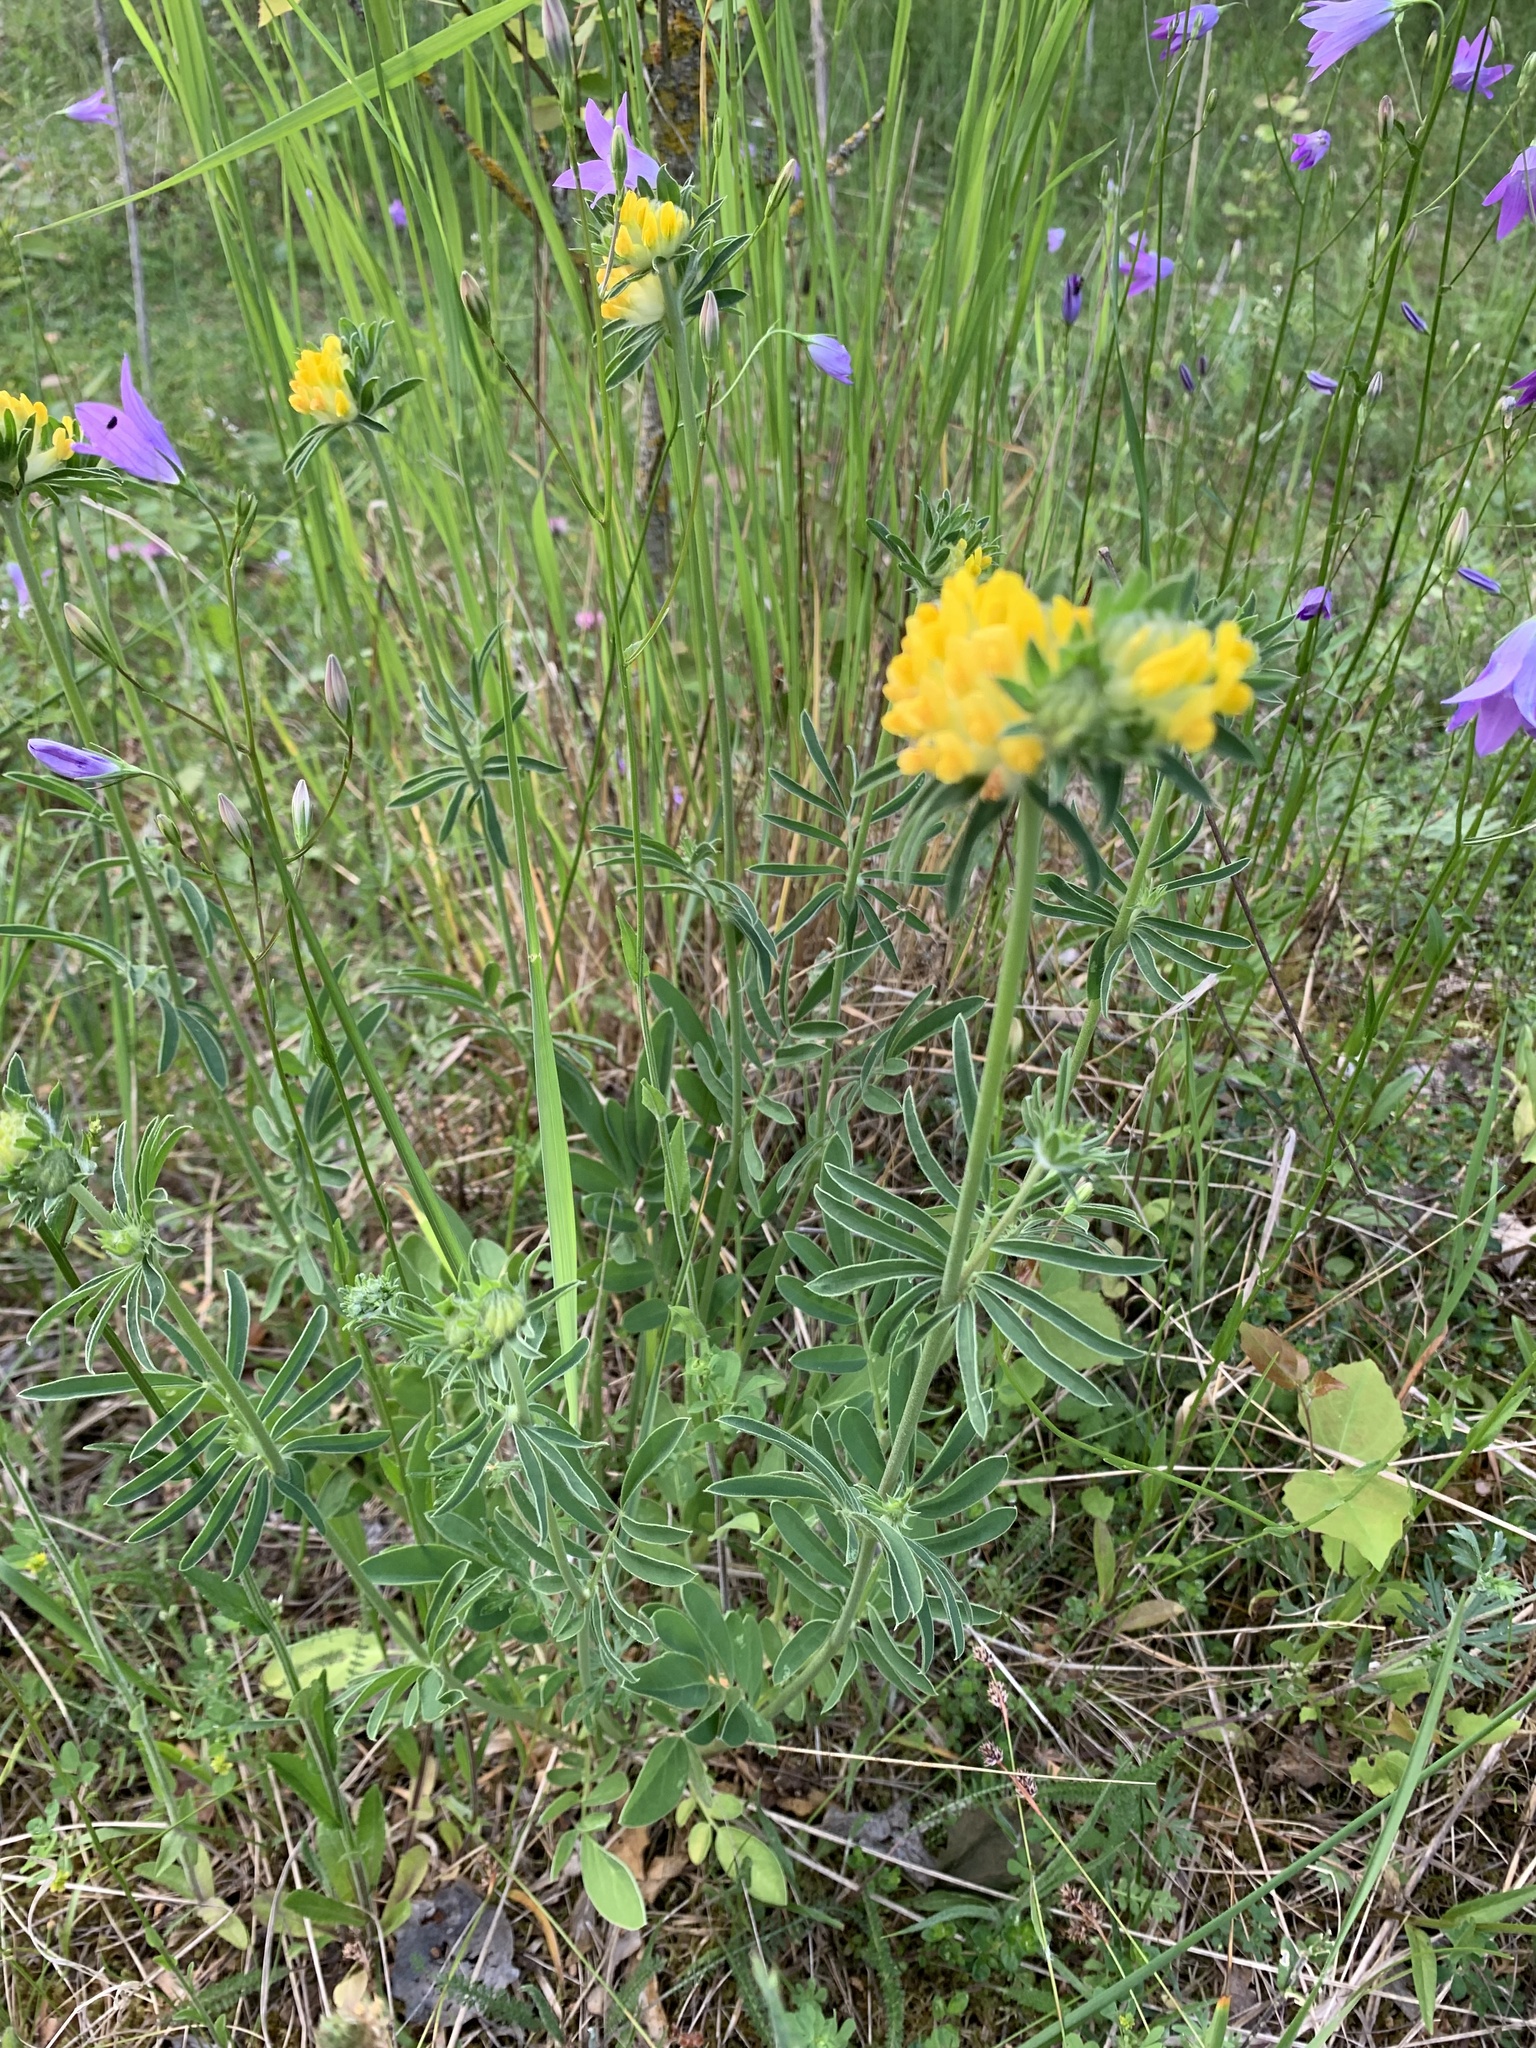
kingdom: Plantae
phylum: Tracheophyta
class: Magnoliopsida
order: Fabales
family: Fabaceae
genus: Anthyllis
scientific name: Anthyllis vulneraria
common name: Kidney vetch
